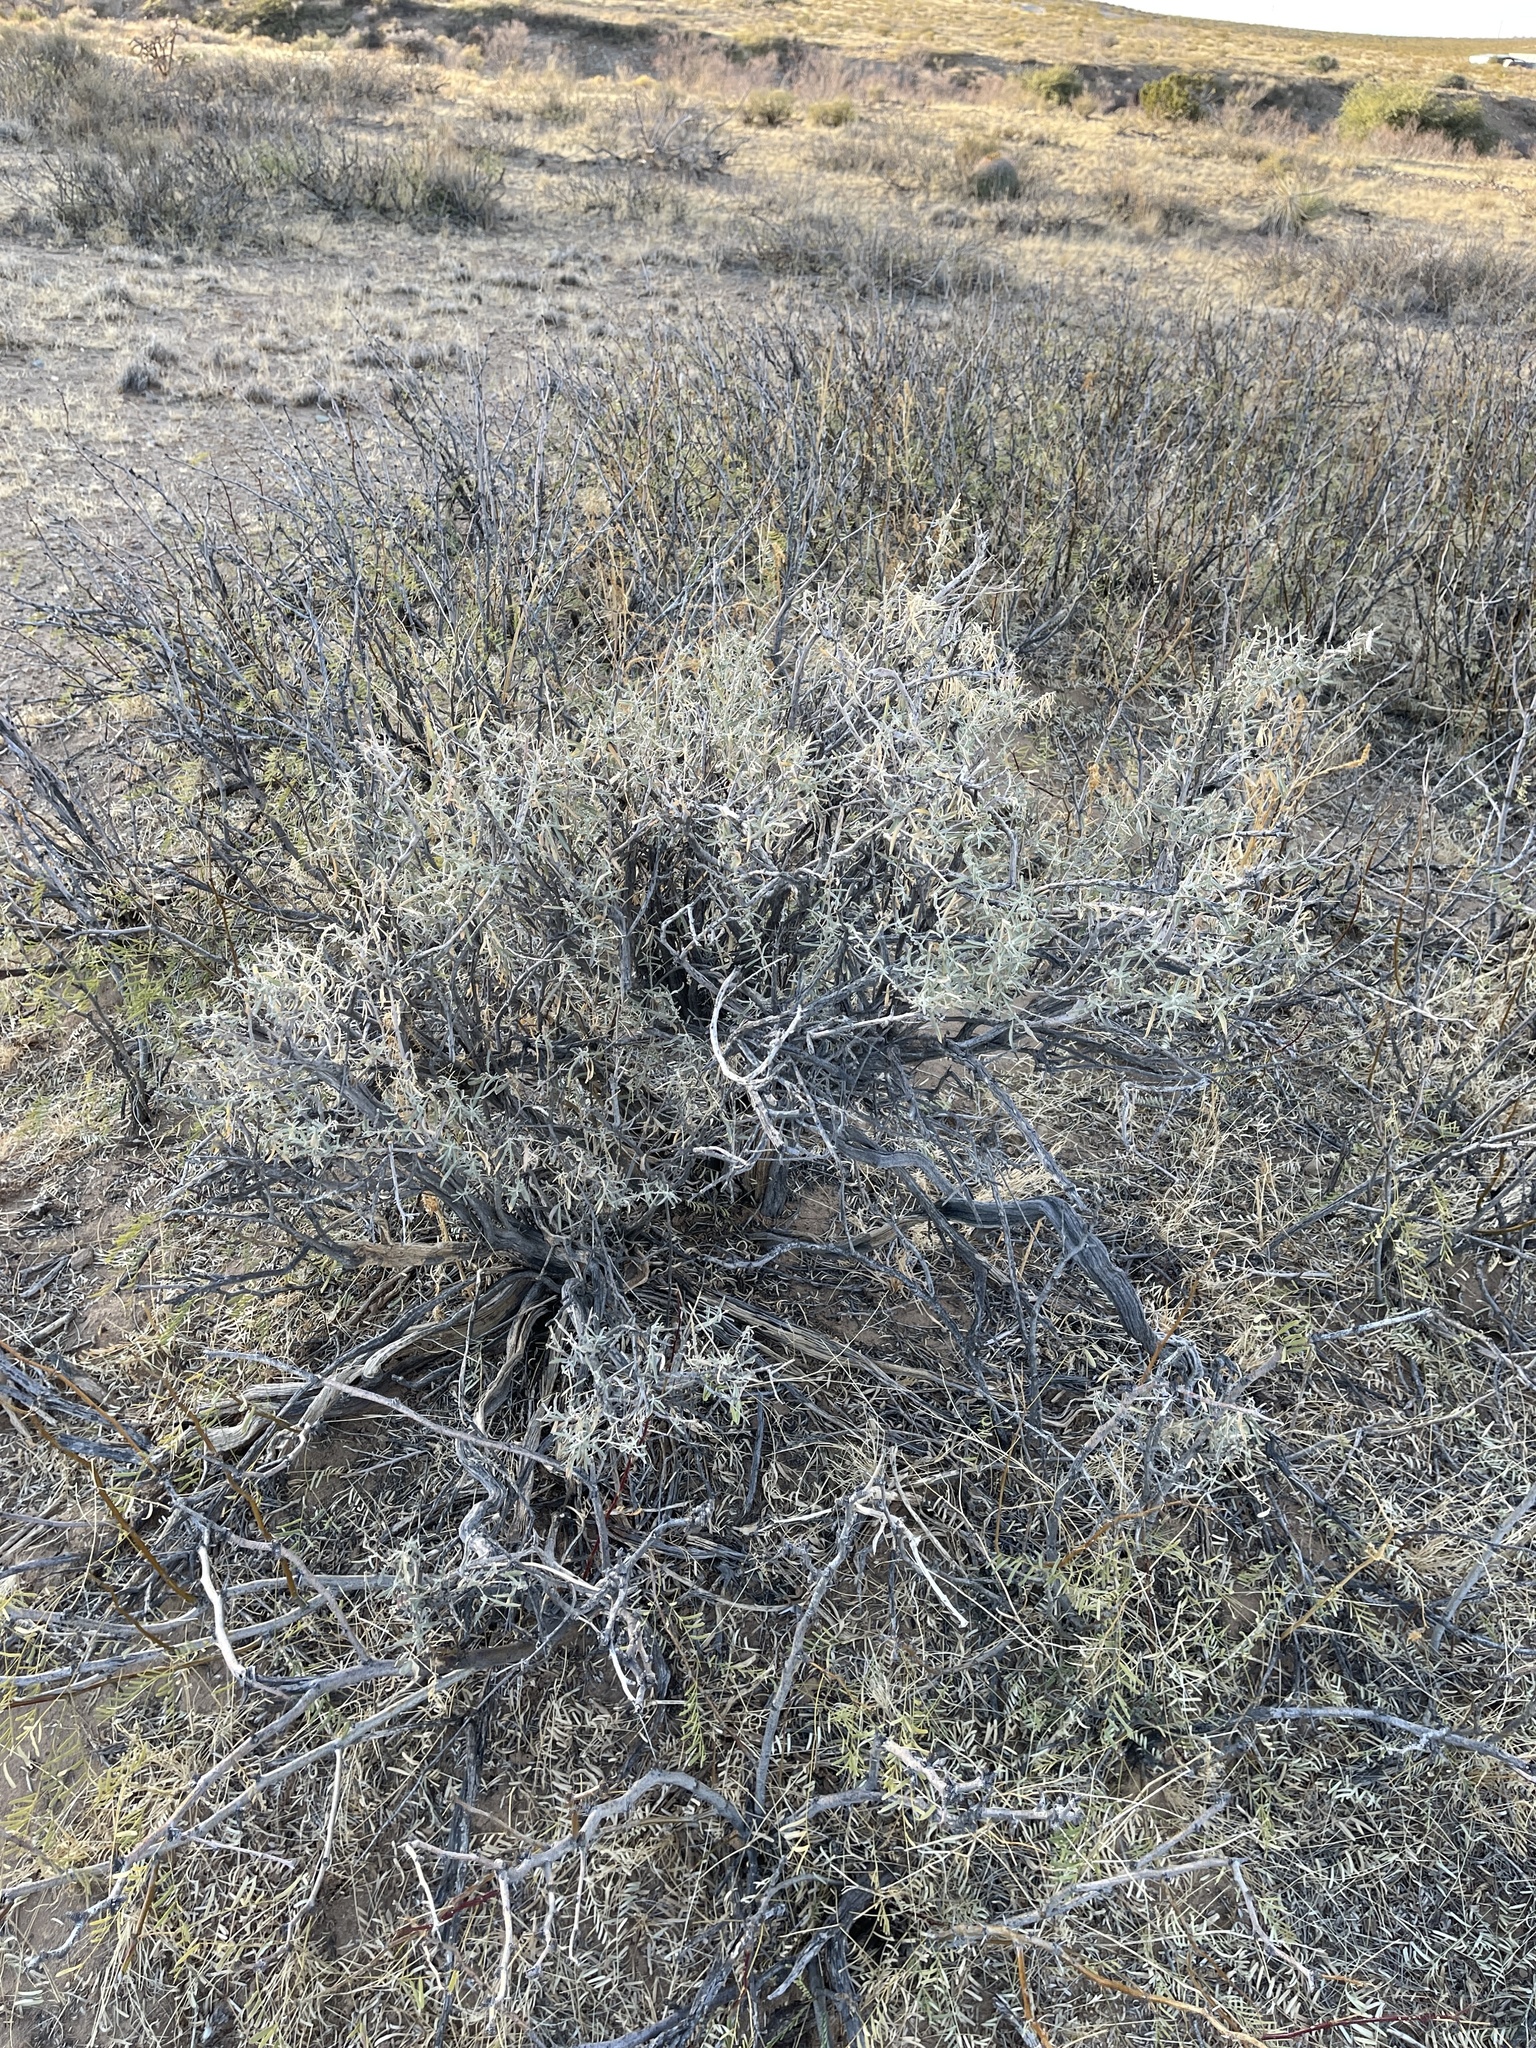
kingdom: Plantae
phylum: Tracheophyta
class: Magnoliopsida
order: Caryophyllales
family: Amaranthaceae
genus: Atriplex
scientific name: Atriplex canescens
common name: Four-wing saltbush
